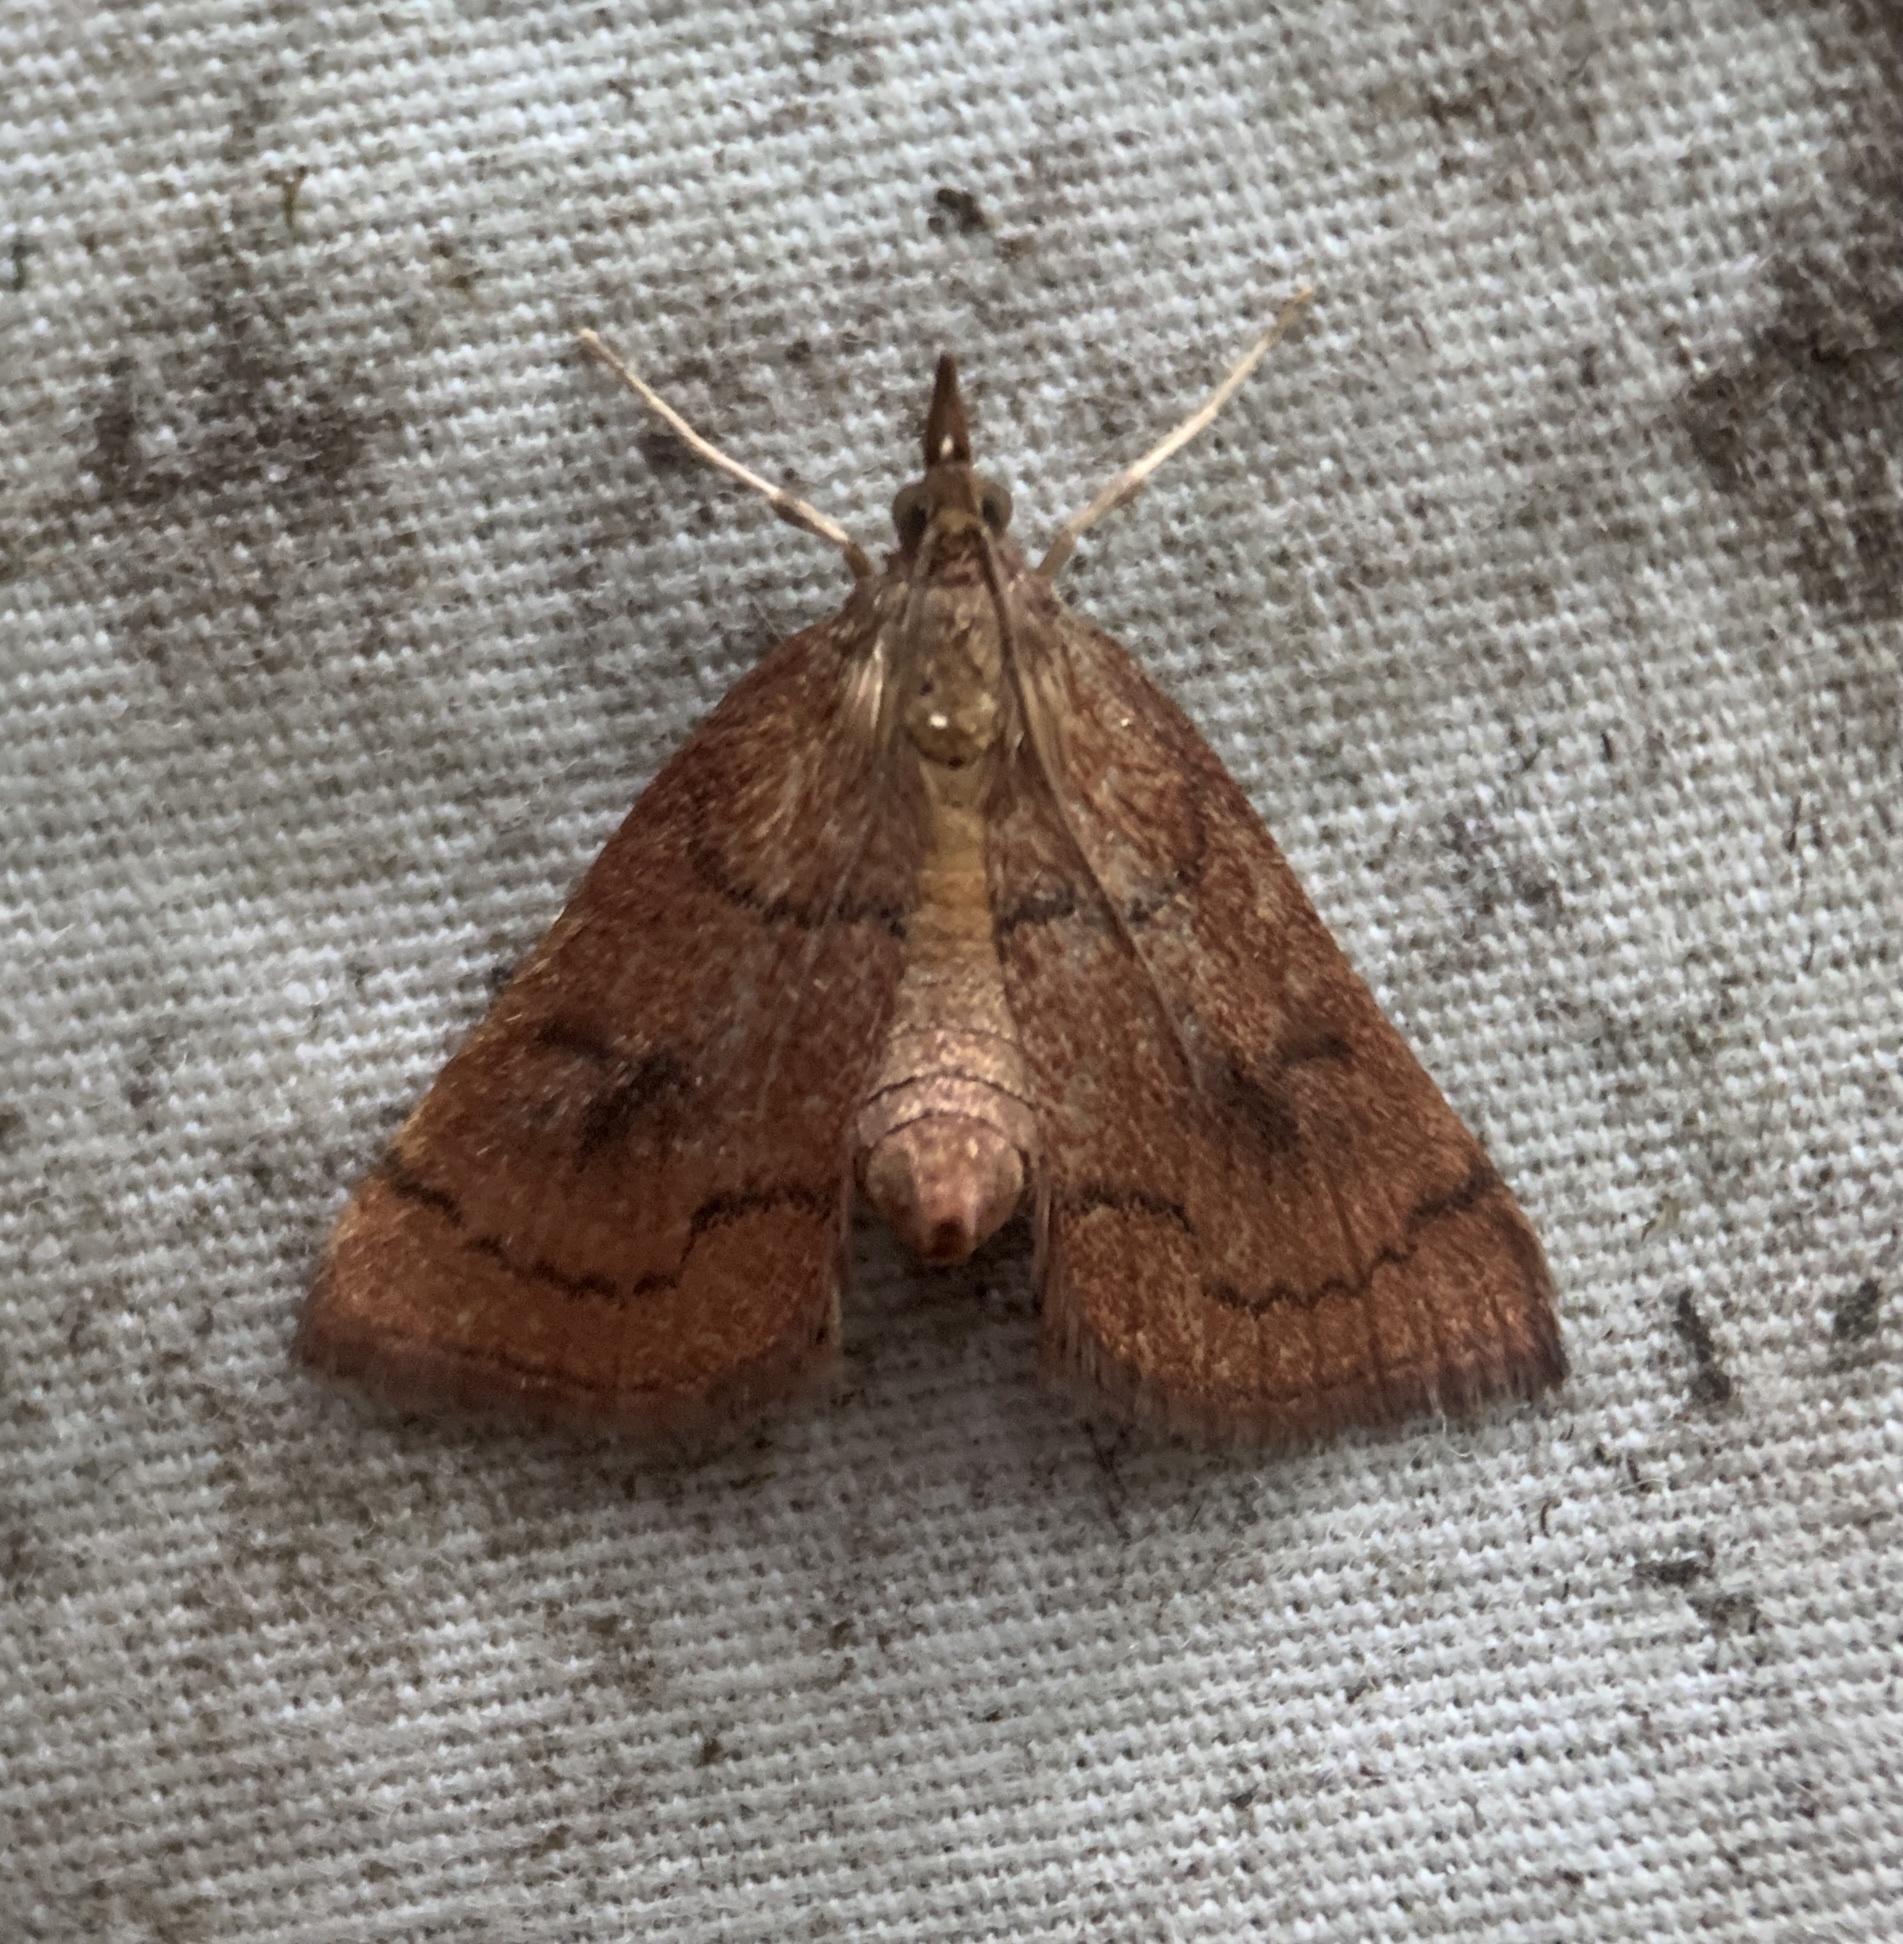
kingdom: Animalia
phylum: Arthropoda
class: Insecta
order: Lepidoptera
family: Crambidae
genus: Fumibotys
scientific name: Fumibotys fumalis
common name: Mint root borer moth
